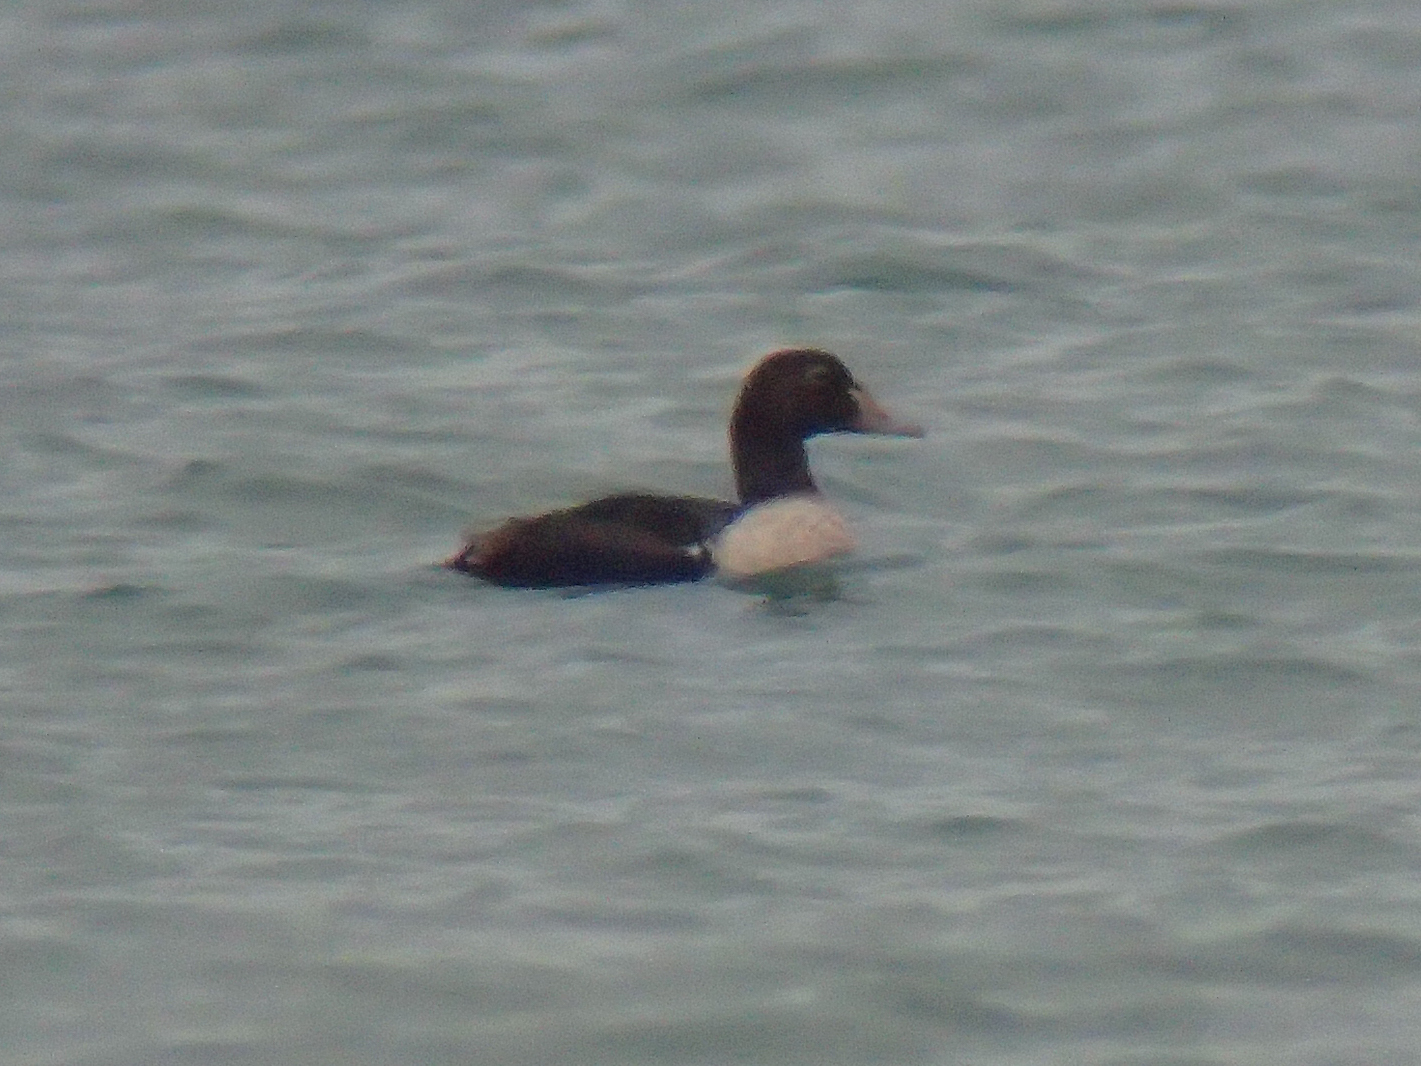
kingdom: Animalia
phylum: Chordata
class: Aves
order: Anseriformes
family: Anatidae
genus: Somateria
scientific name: Somateria spectabilis
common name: King eider
